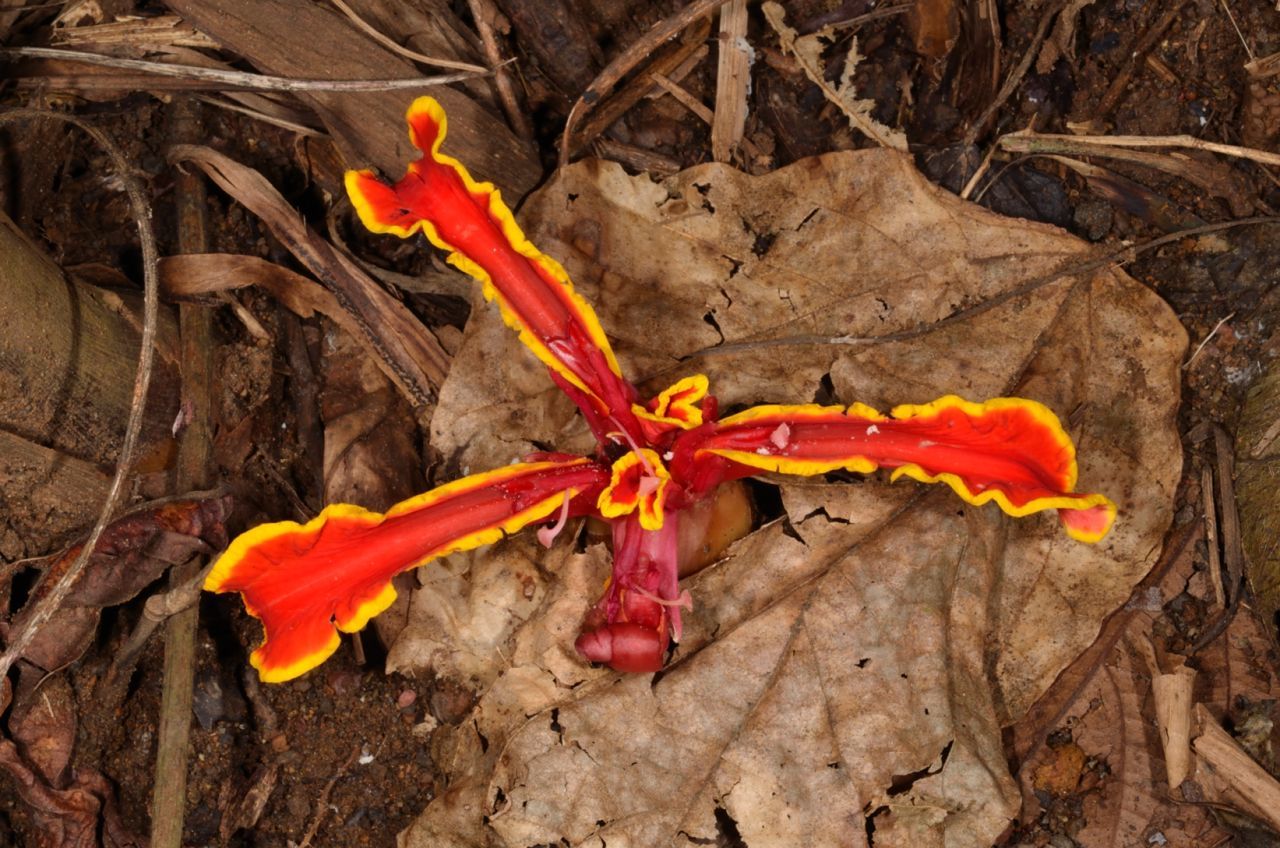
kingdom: Plantae
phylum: Tracheophyta
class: Liliopsida
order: Zingiberales
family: Zingiberaceae
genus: Etlingera
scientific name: Etlingera megalocheilos
